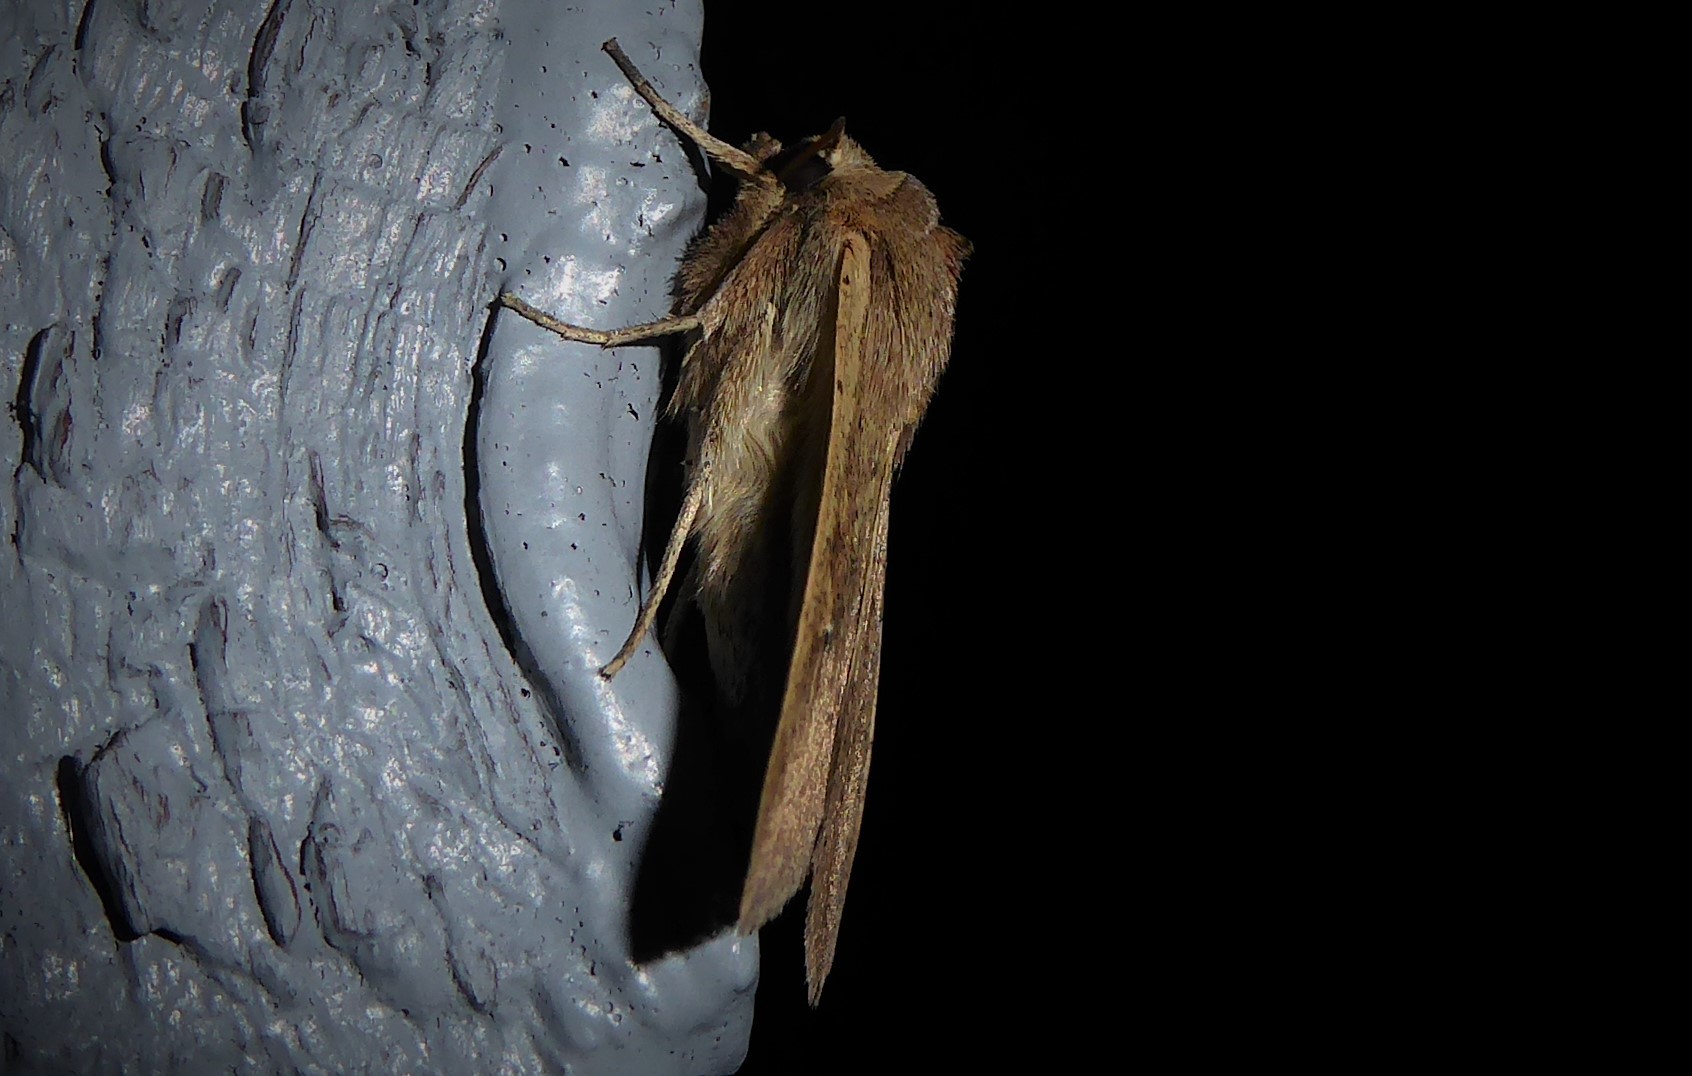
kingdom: Animalia
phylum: Arthropoda
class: Insecta
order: Lepidoptera
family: Noctuidae
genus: Mythimna
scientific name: Mythimna separata
